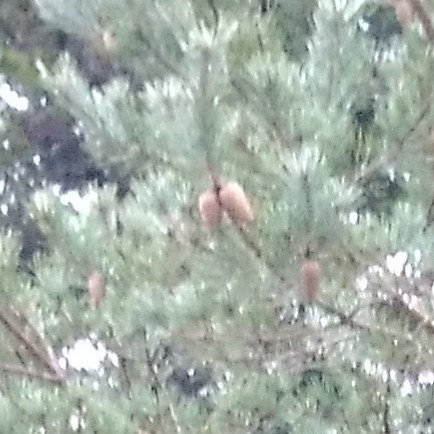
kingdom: Plantae
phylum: Tracheophyta
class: Pinopsida
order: Pinales
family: Pinaceae
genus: Pinus
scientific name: Pinus sylvestris
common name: Scots pine
